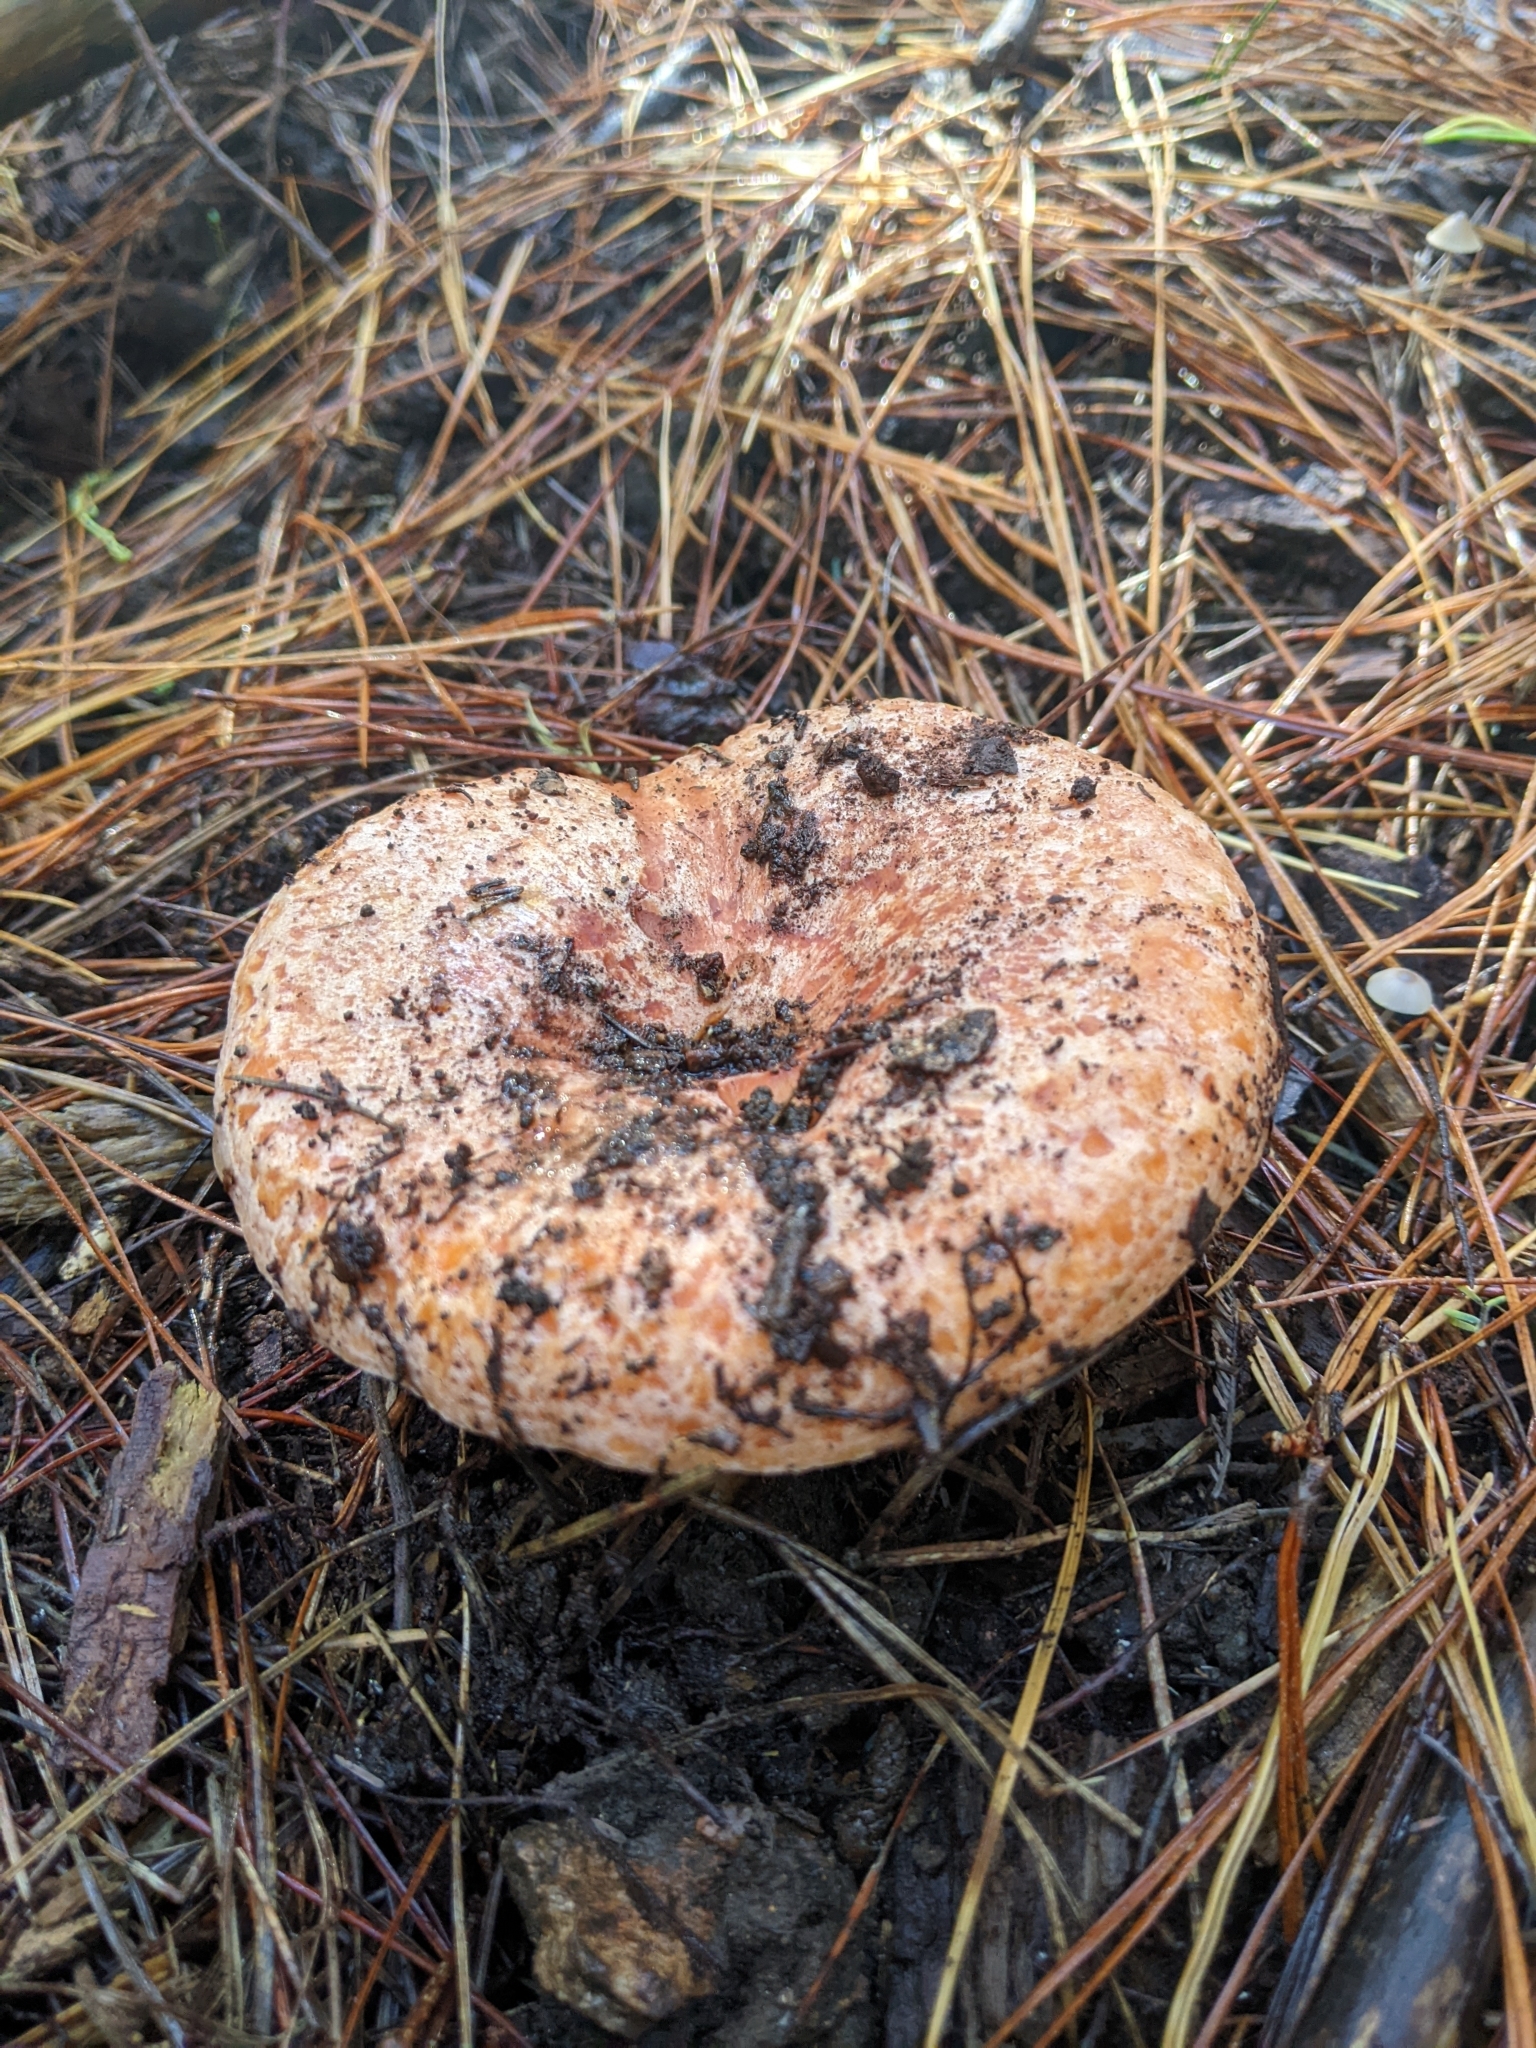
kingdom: Fungi
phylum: Basidiomycota
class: Agaricomycetes
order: Russulales
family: Russulaceae
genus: Lactarius
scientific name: Lactarius deliciosus
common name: Saffron milk-cap
